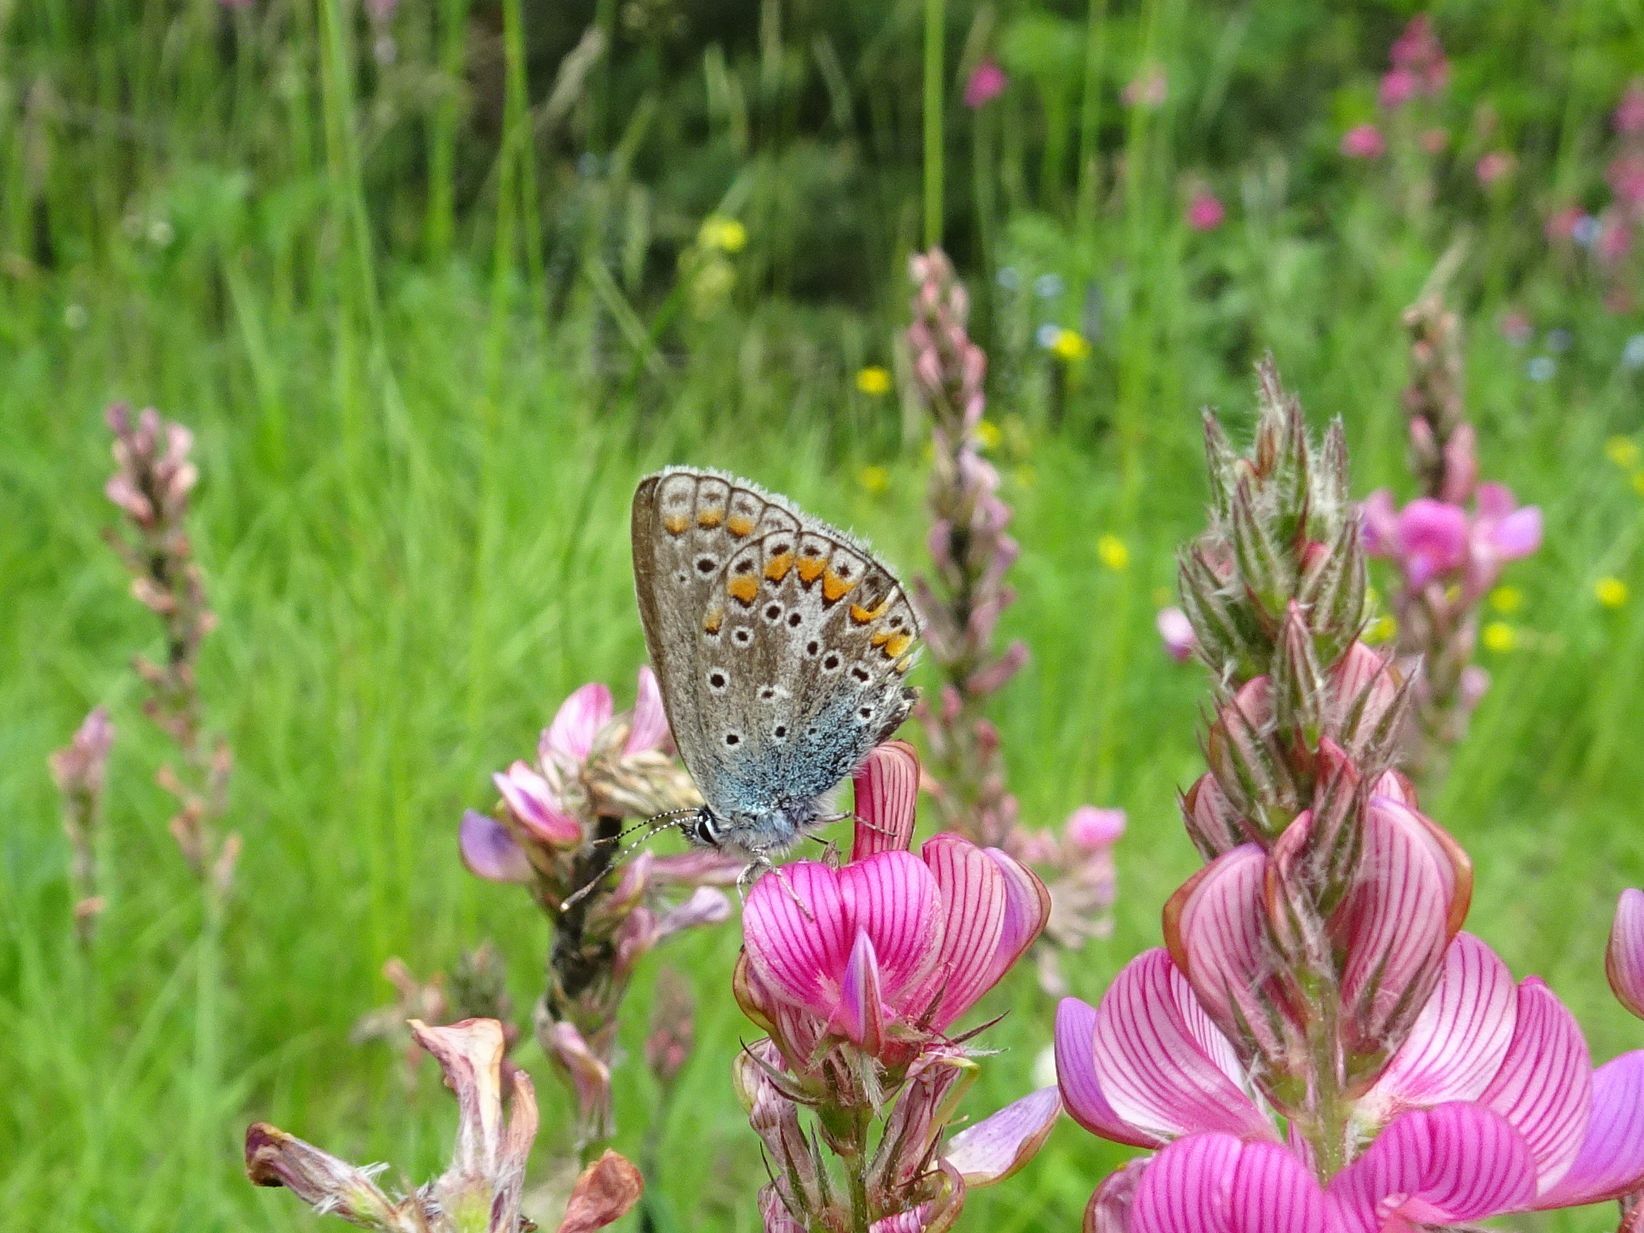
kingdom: Animalia
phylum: Arthropoda
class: Insecta
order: Lepidoptera
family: Lycaenidae
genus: Polyommatus
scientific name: Polyommatus icarus
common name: Common blue
